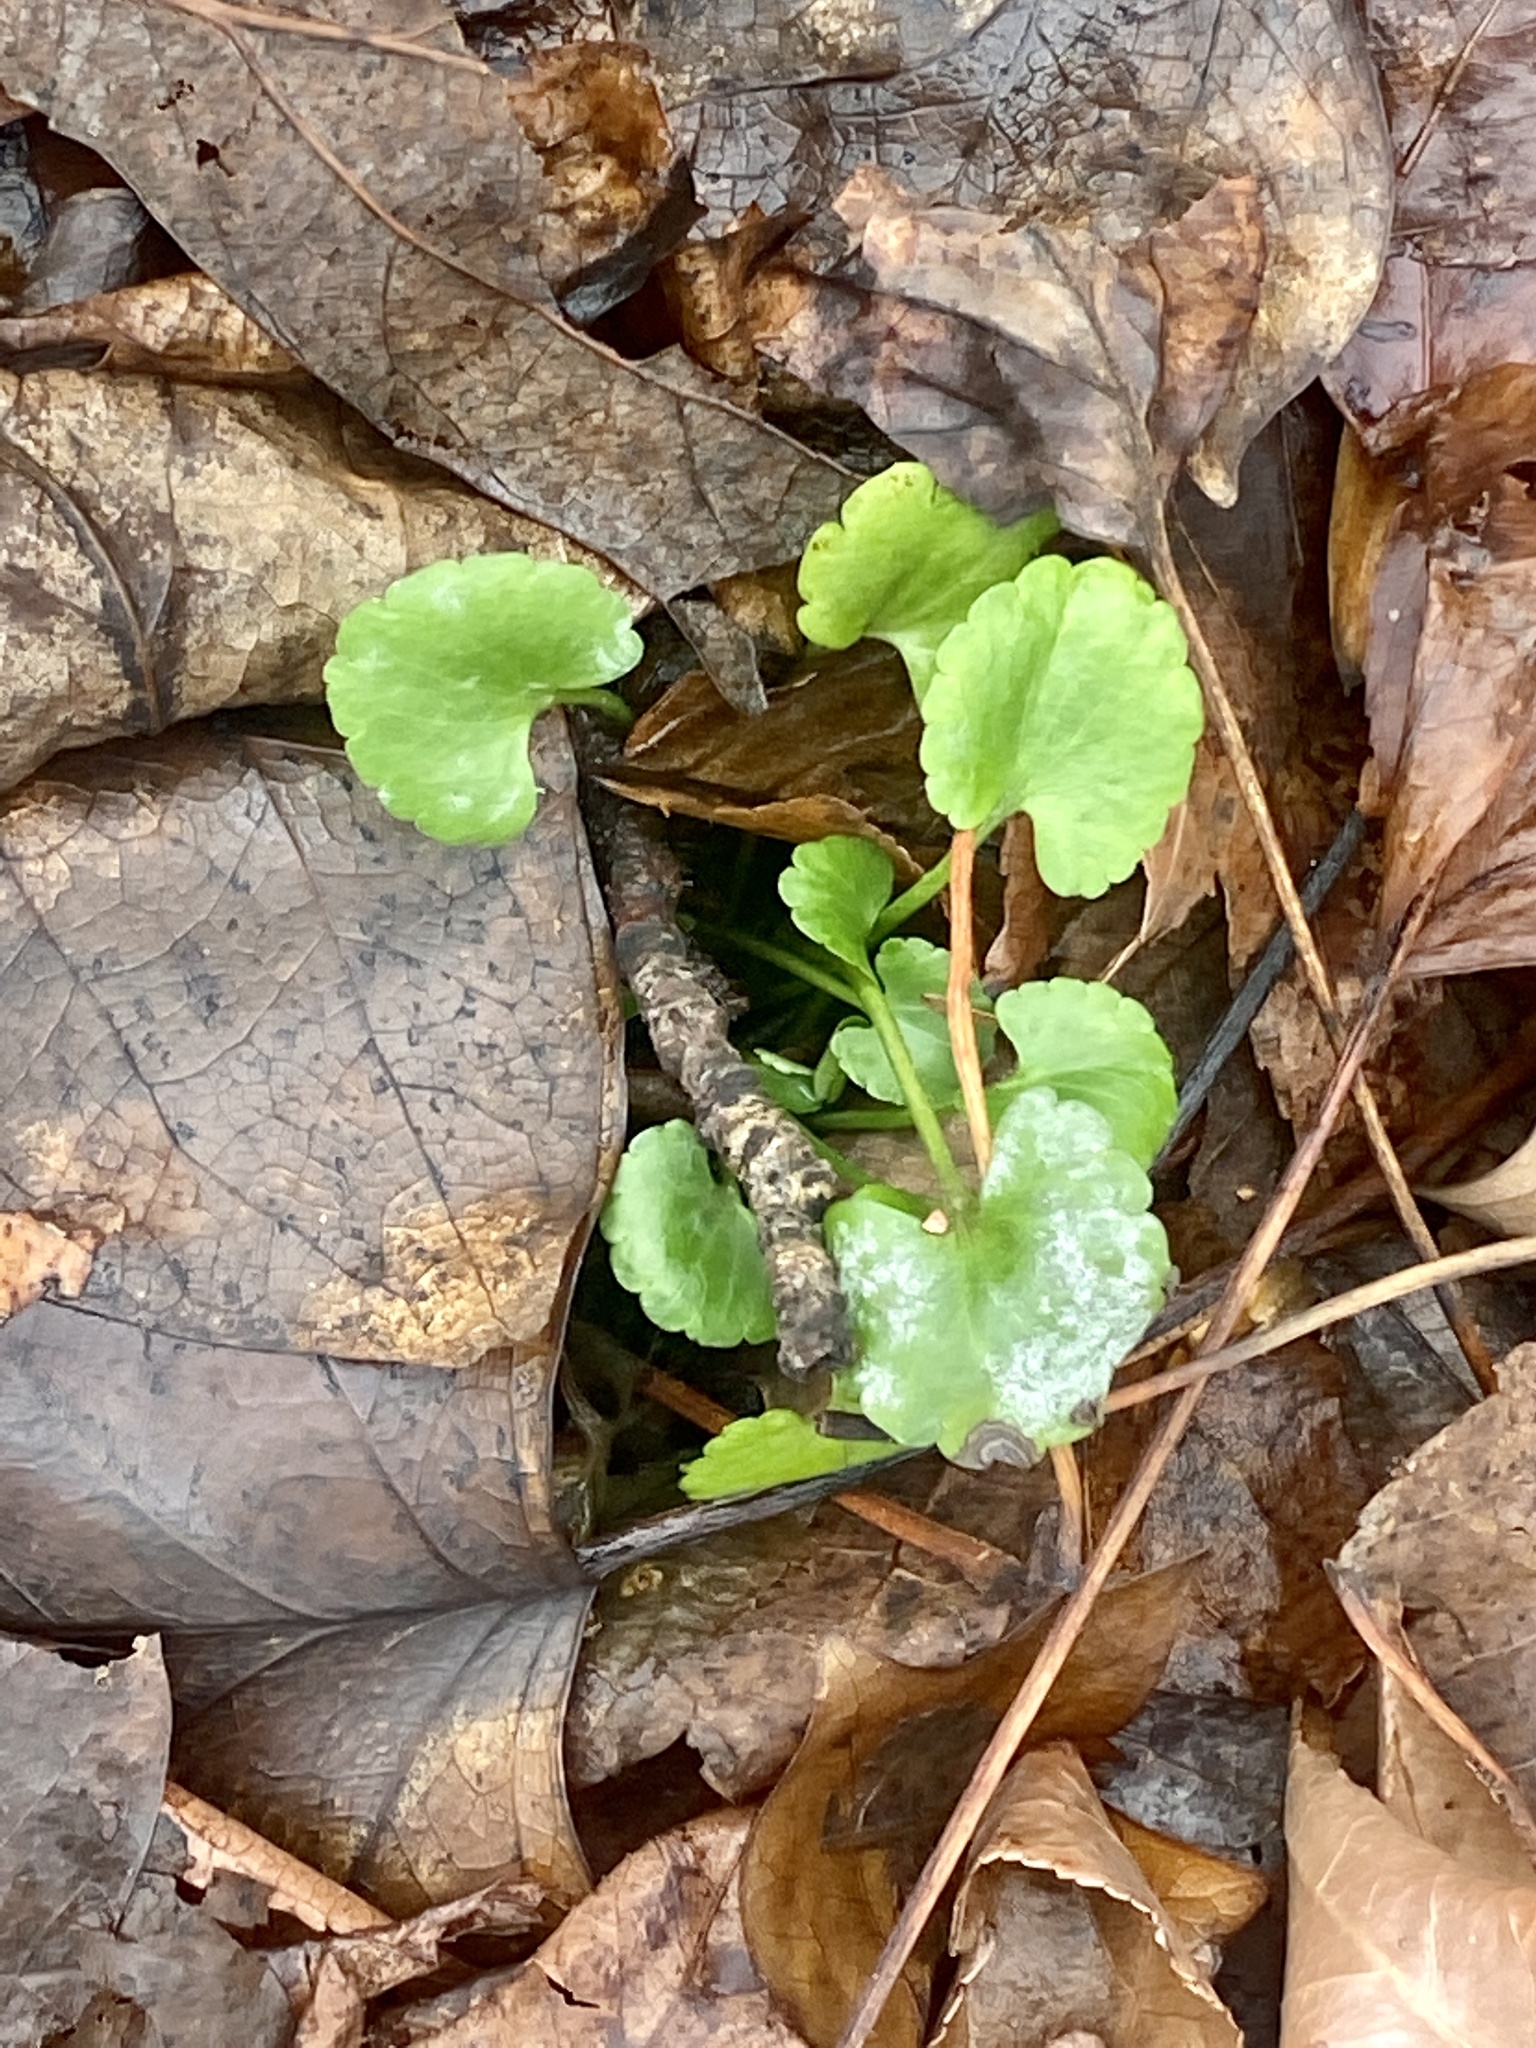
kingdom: Plantae
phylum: Tracheophyta
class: Magnoliopsida
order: Ranunculales
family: Ranunculaceae
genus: Ranunculus
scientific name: Ranunculus abortivus
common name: Early wood buttercup
